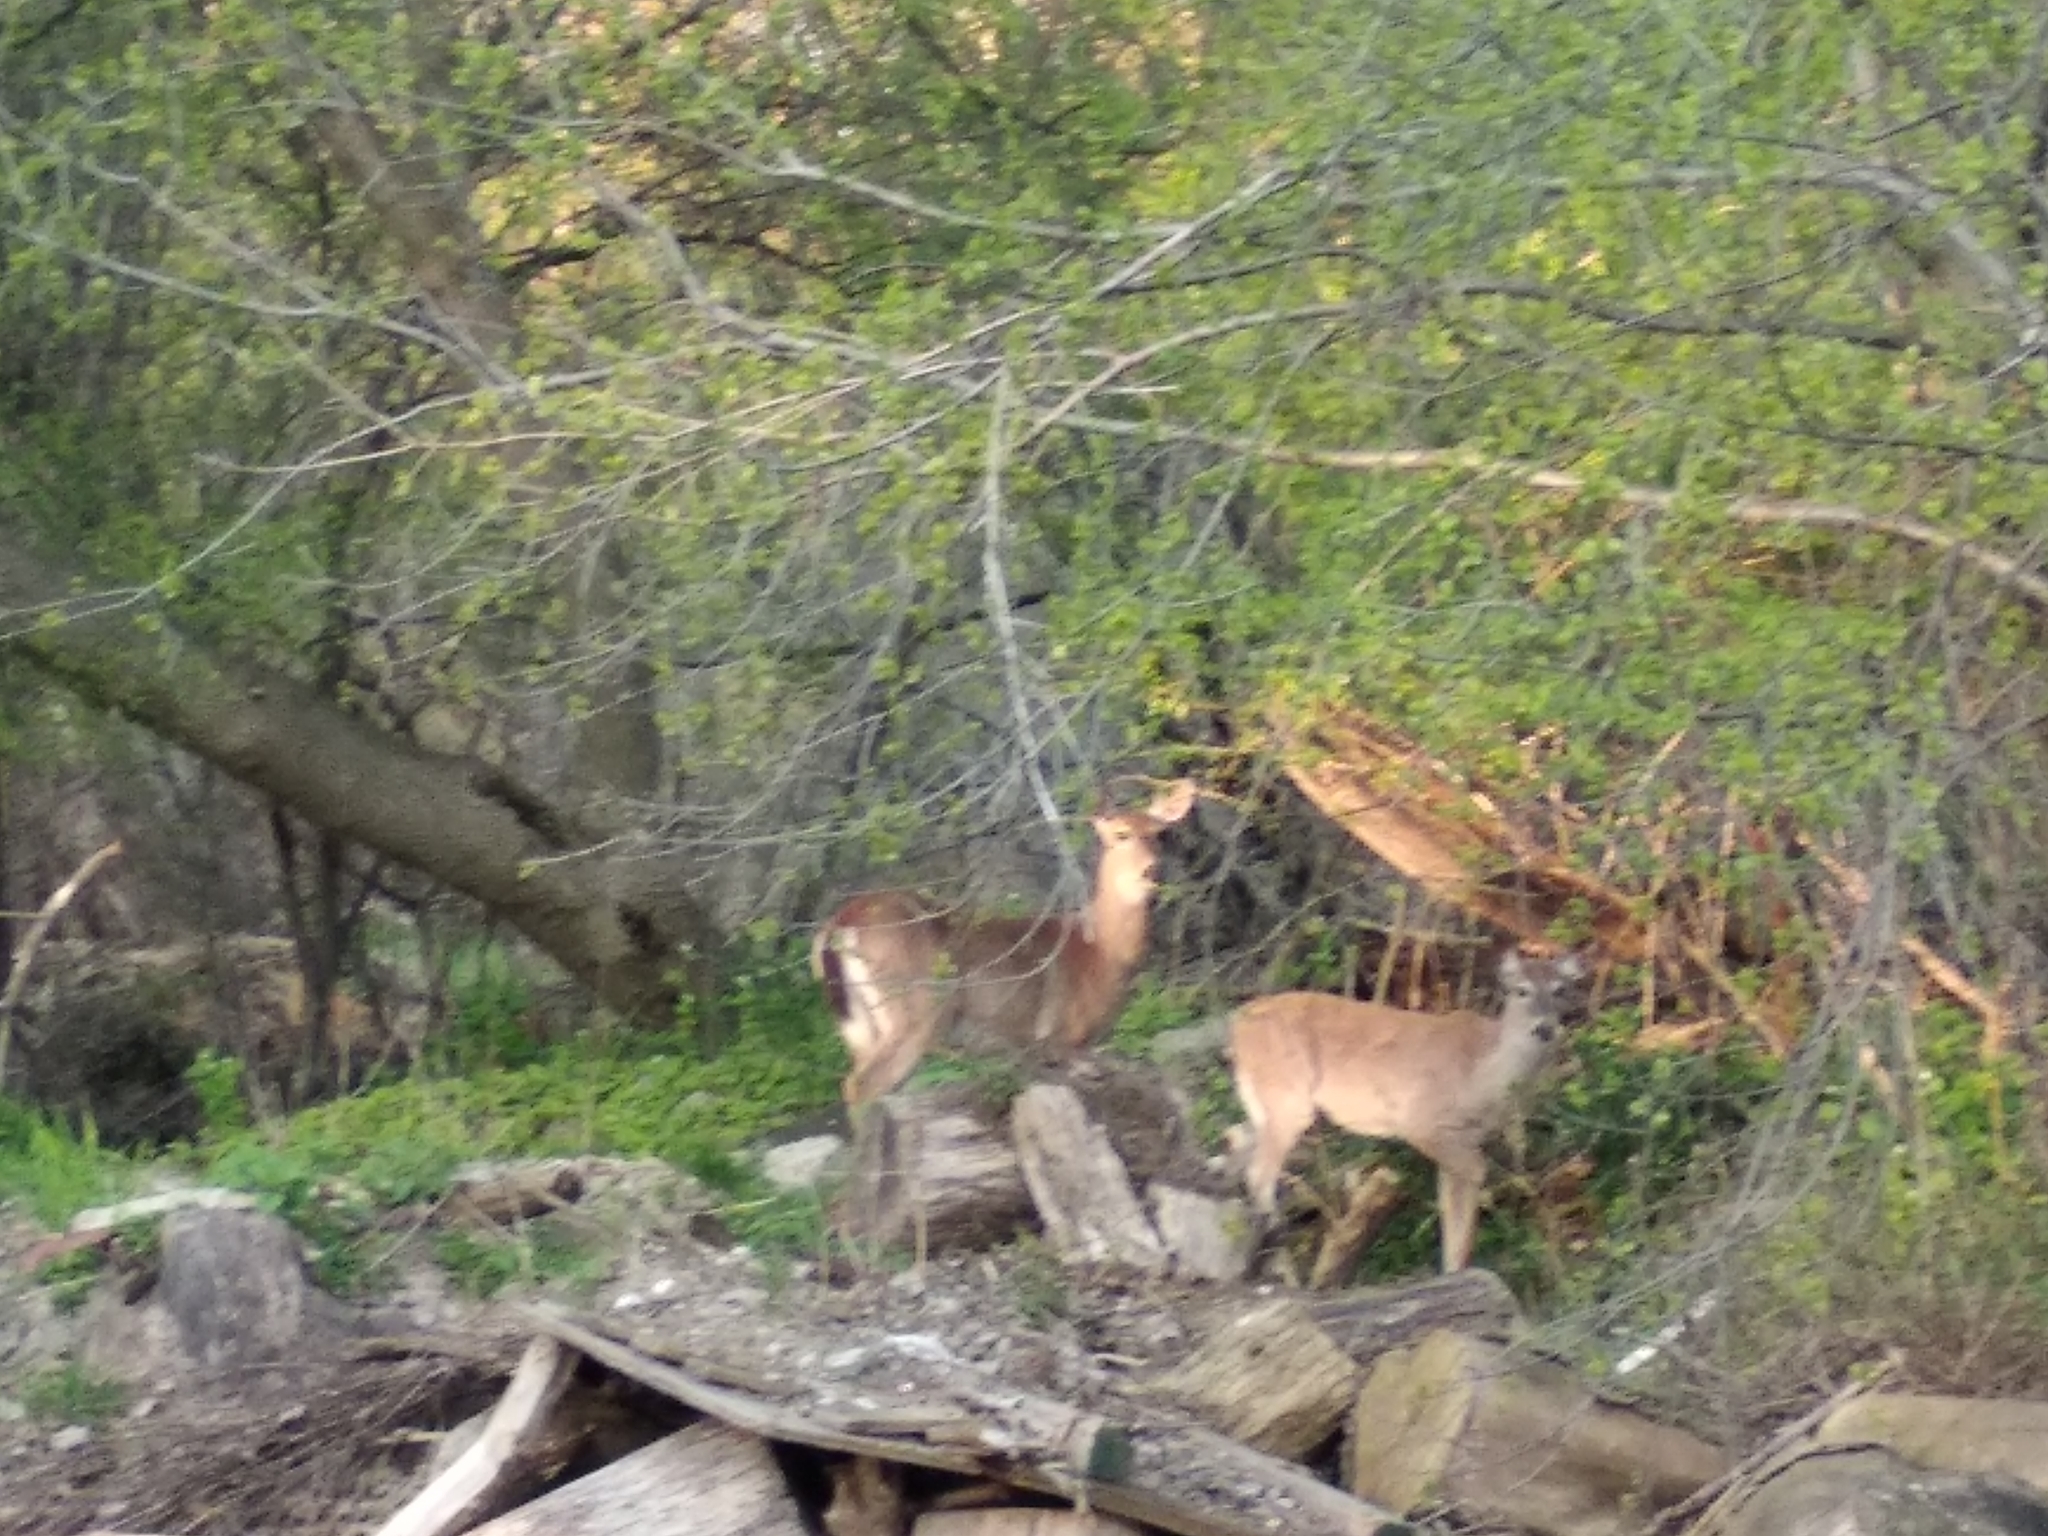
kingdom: Animalia
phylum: Chordata
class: Mammalia
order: Artiodactyla
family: Cervidae
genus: Odocoileus
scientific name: Odocoileus virginianus
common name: White-tailed deer
